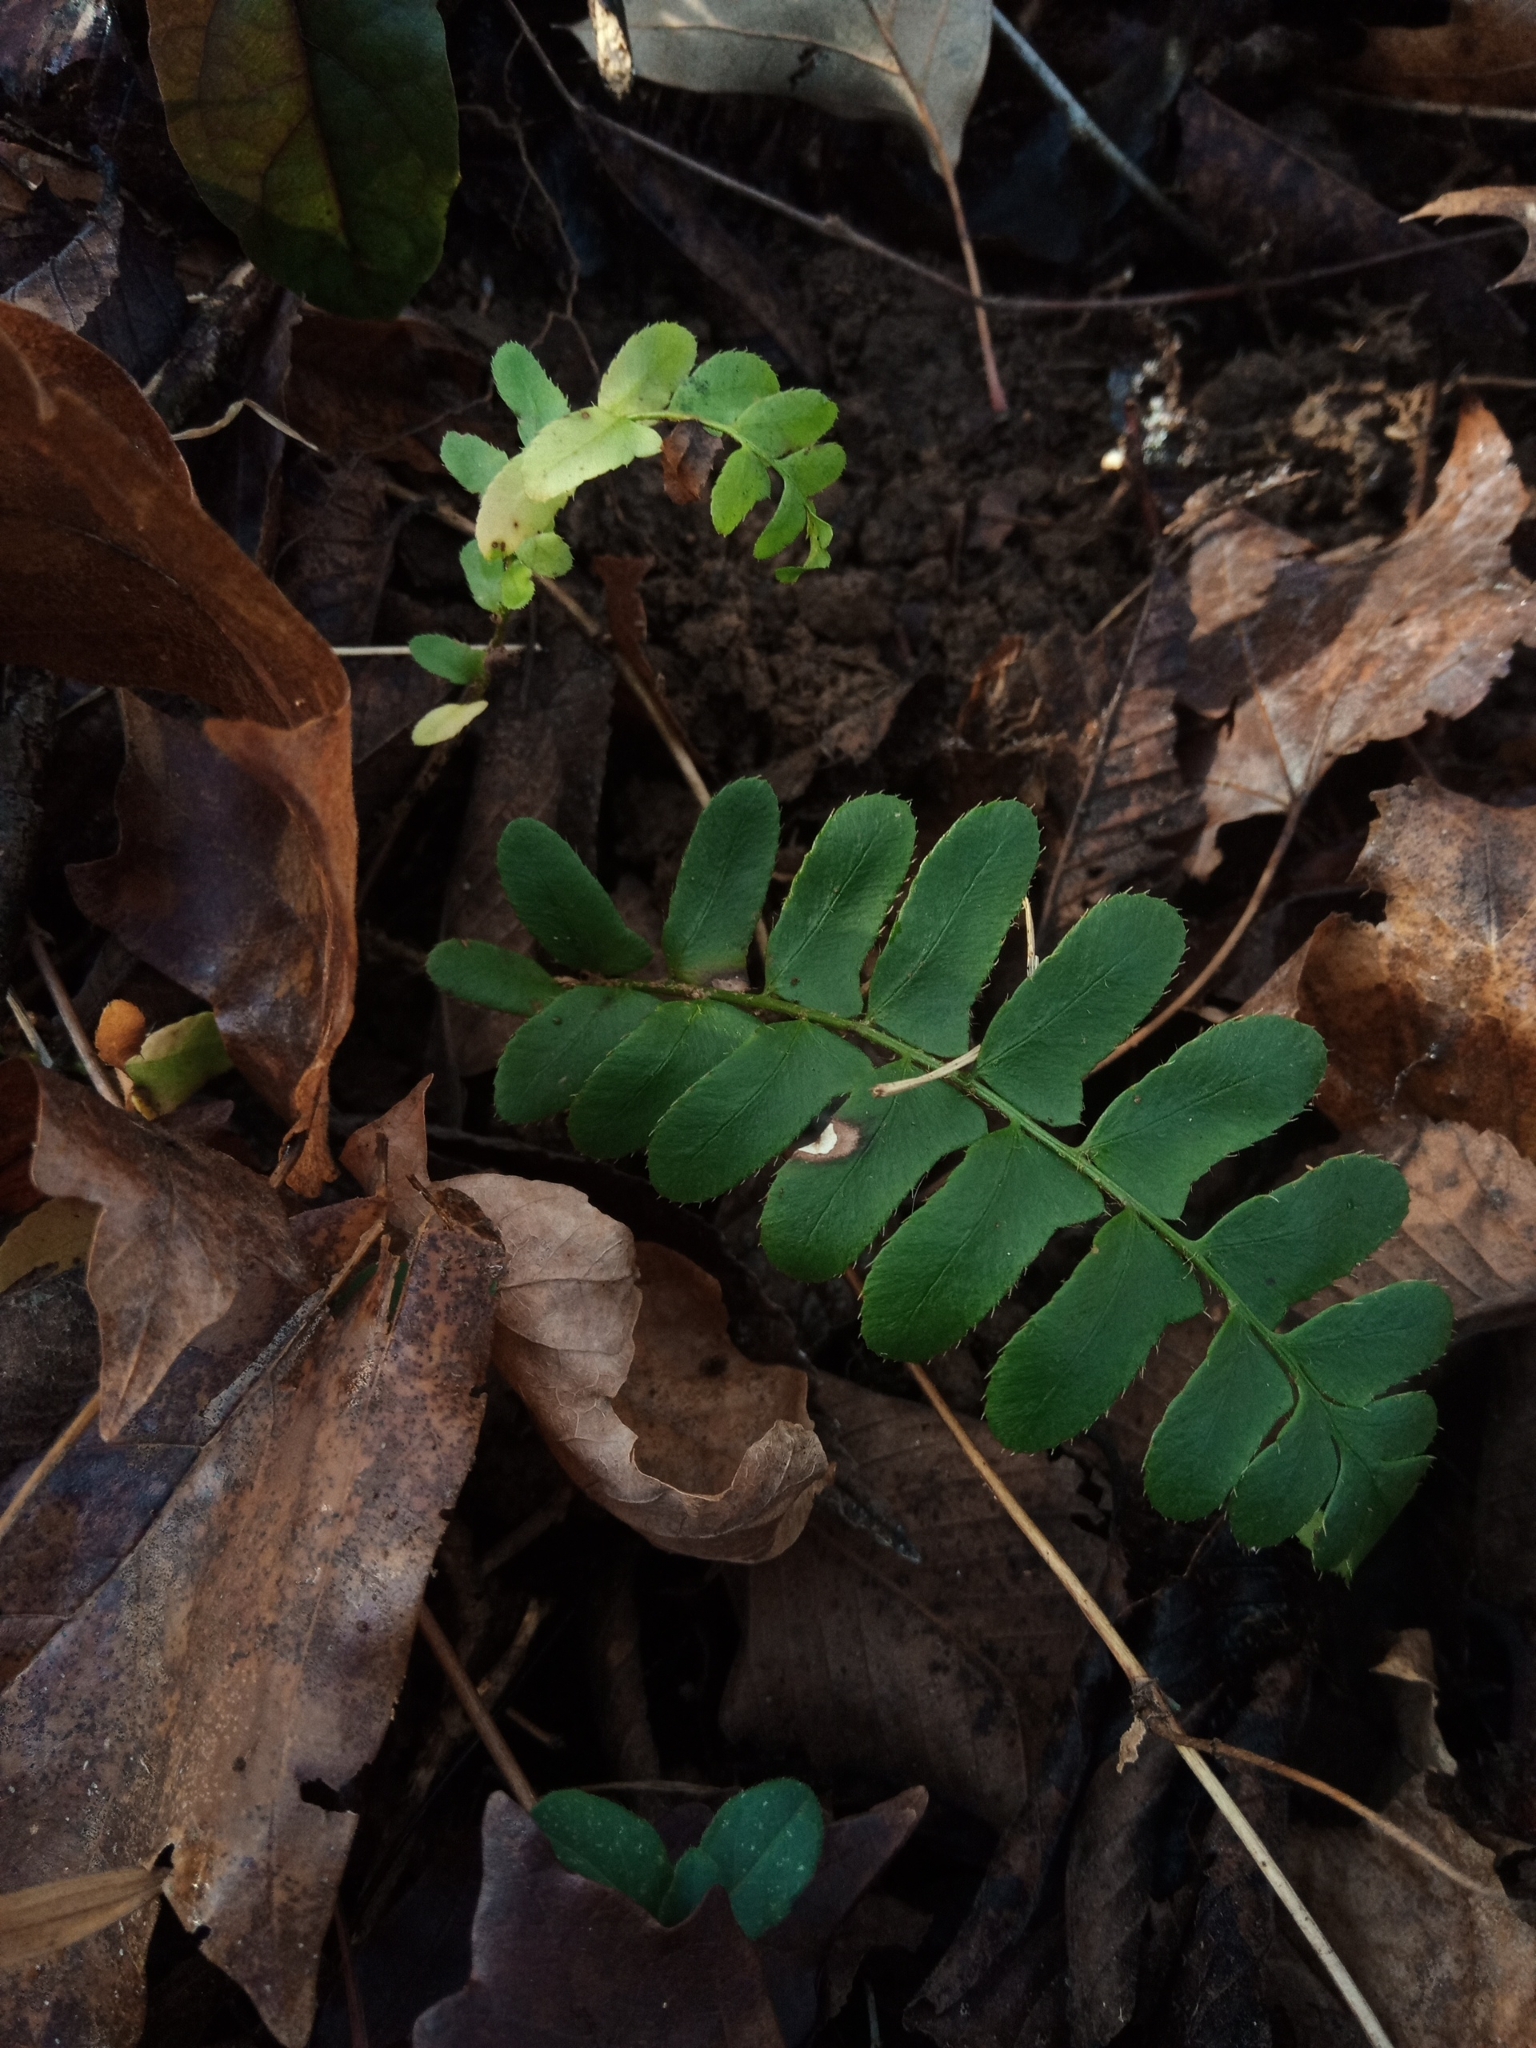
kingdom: Plantae
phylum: Tracheophyta
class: Polypodiopsida
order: Polypodiales
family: Dryopteridaceae
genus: Polystichum
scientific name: Polystichum acrostichoides
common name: Christmas fern
